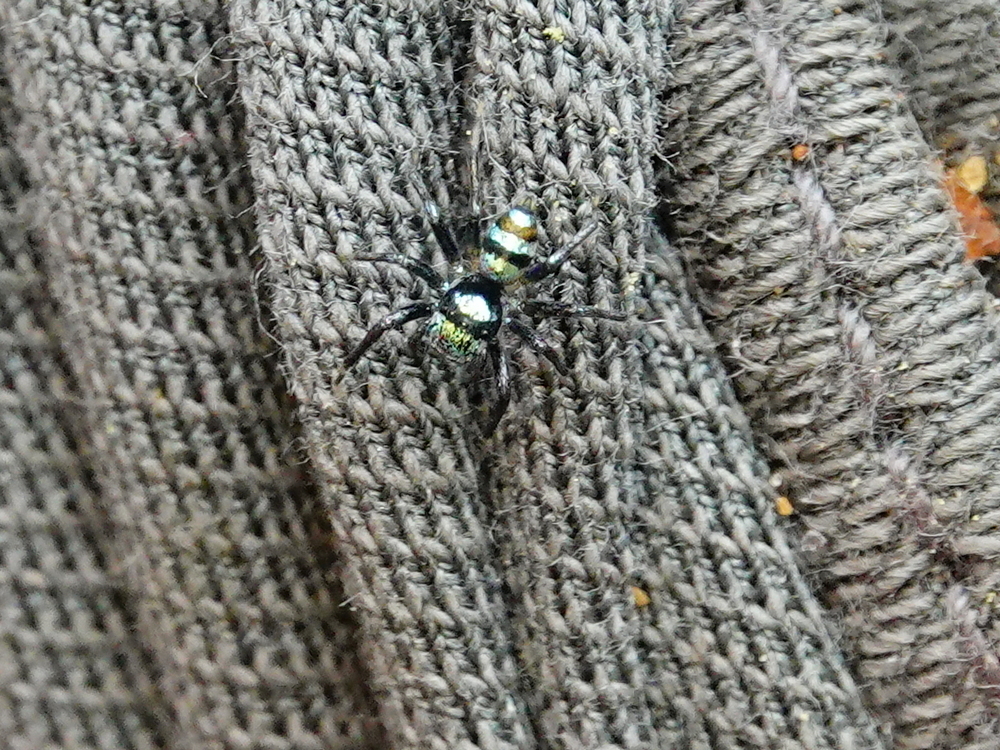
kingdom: Animalia
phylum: Arthropoda
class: Arachnida
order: Araneae
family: Salticidae
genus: Phintella
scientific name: Phintella vittata
